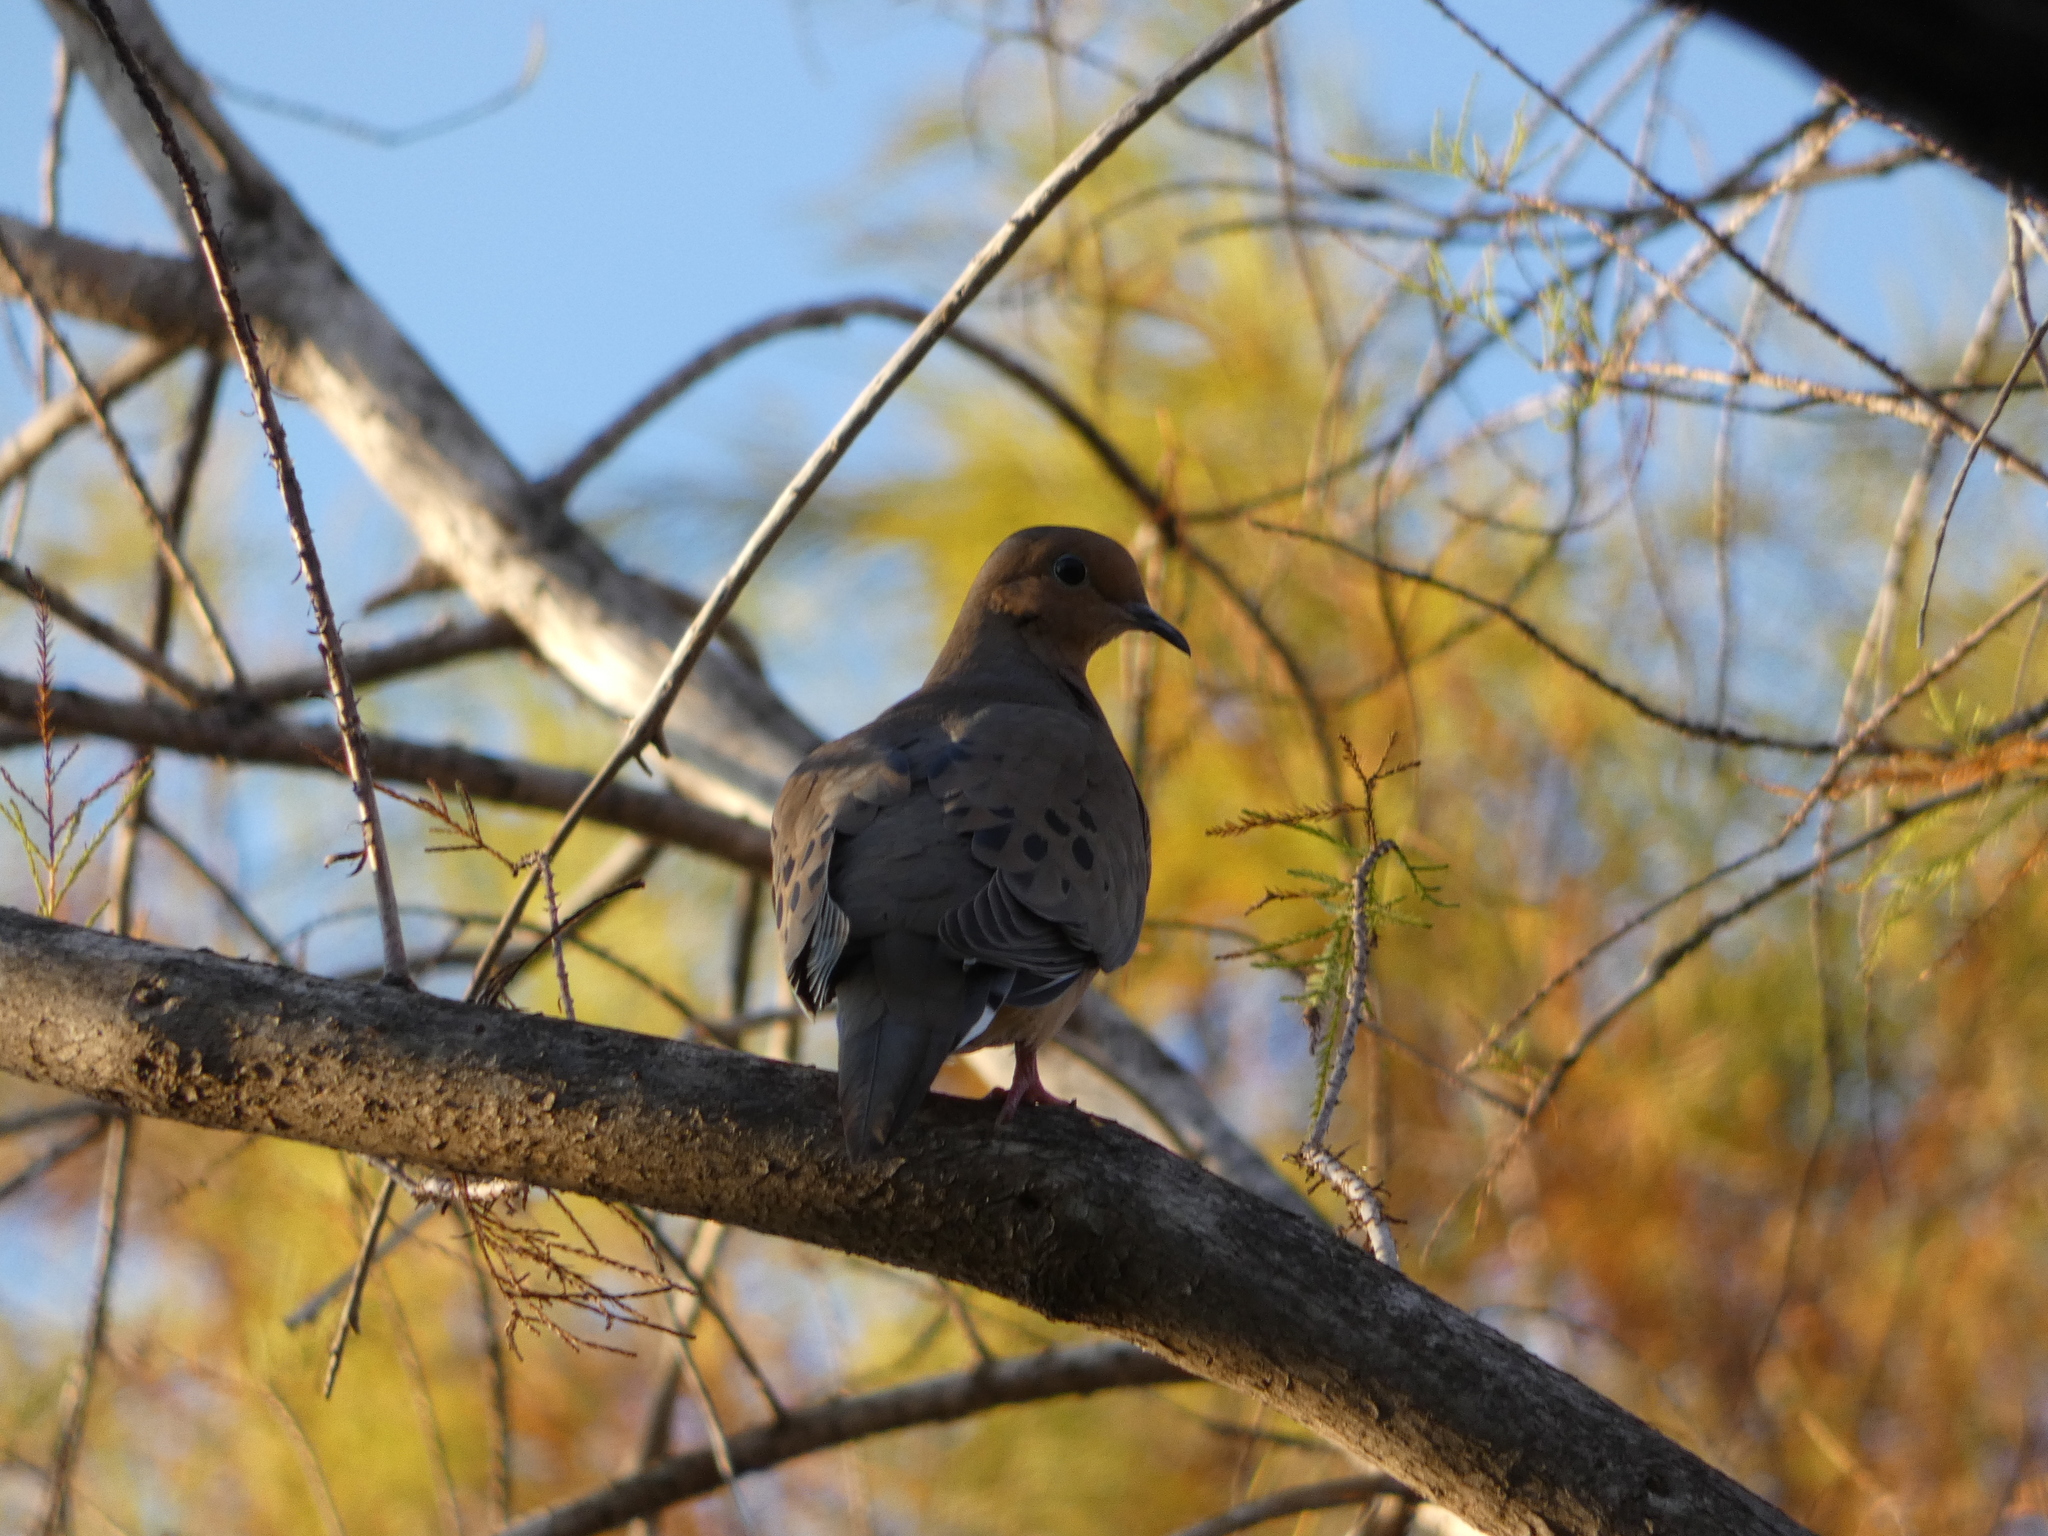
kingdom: Animalia
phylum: Chordata
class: Aves
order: Columbiformes
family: Columbidae
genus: Zenaida
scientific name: Zenaida macroura
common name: Mourning dove
